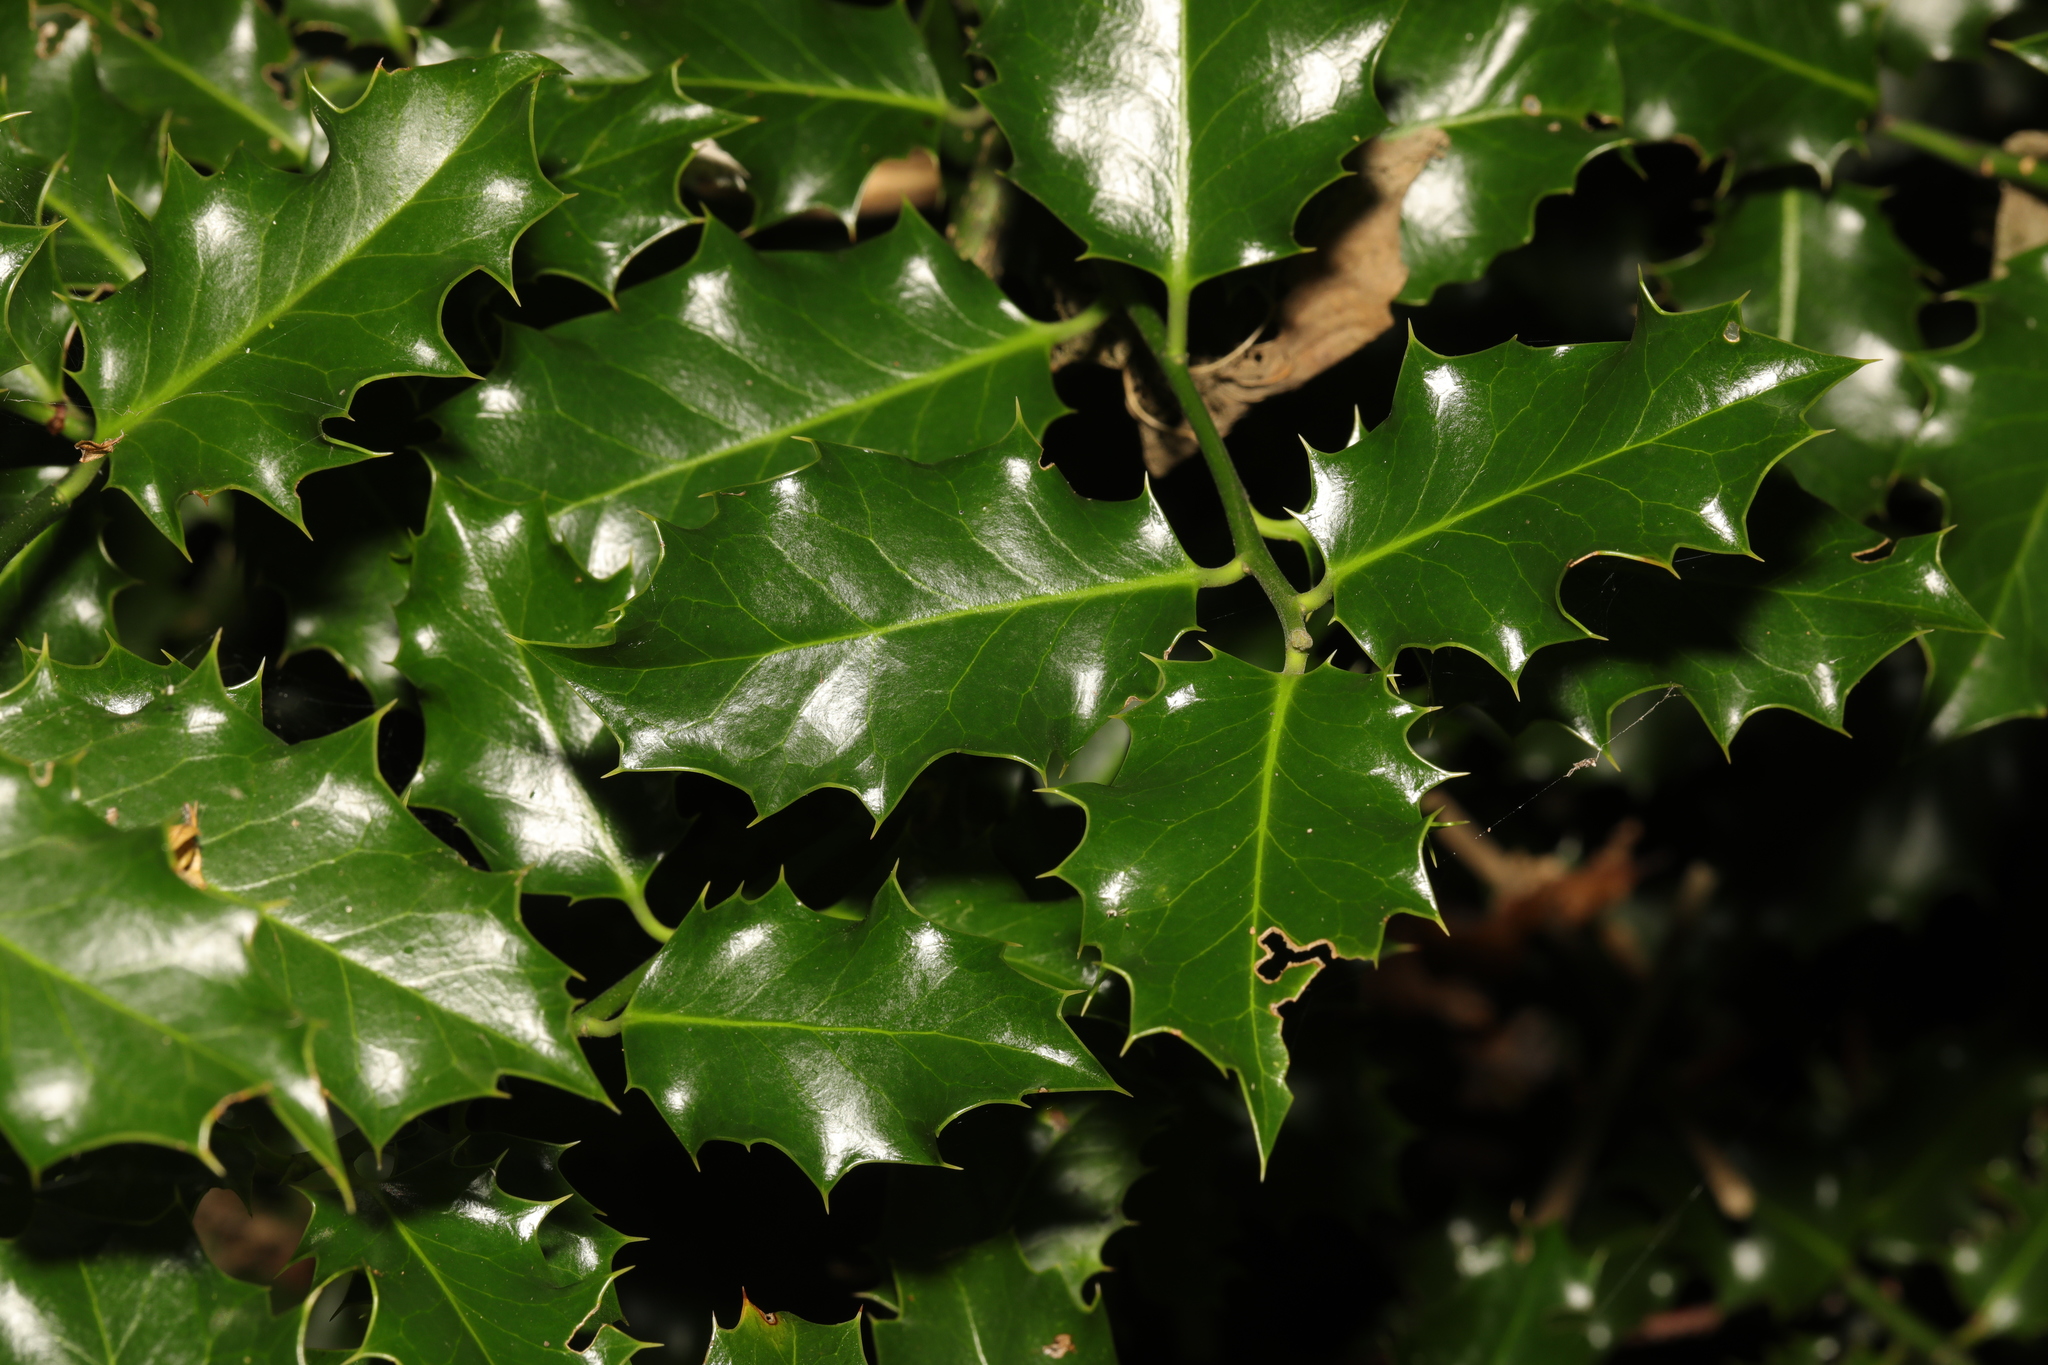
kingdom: Plantae
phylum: Tracheophyta
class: Magnoliopsida
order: Aquifoliales
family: Aquifoliaceae
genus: Ilex
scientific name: Ilex aquifolium
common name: English holly
